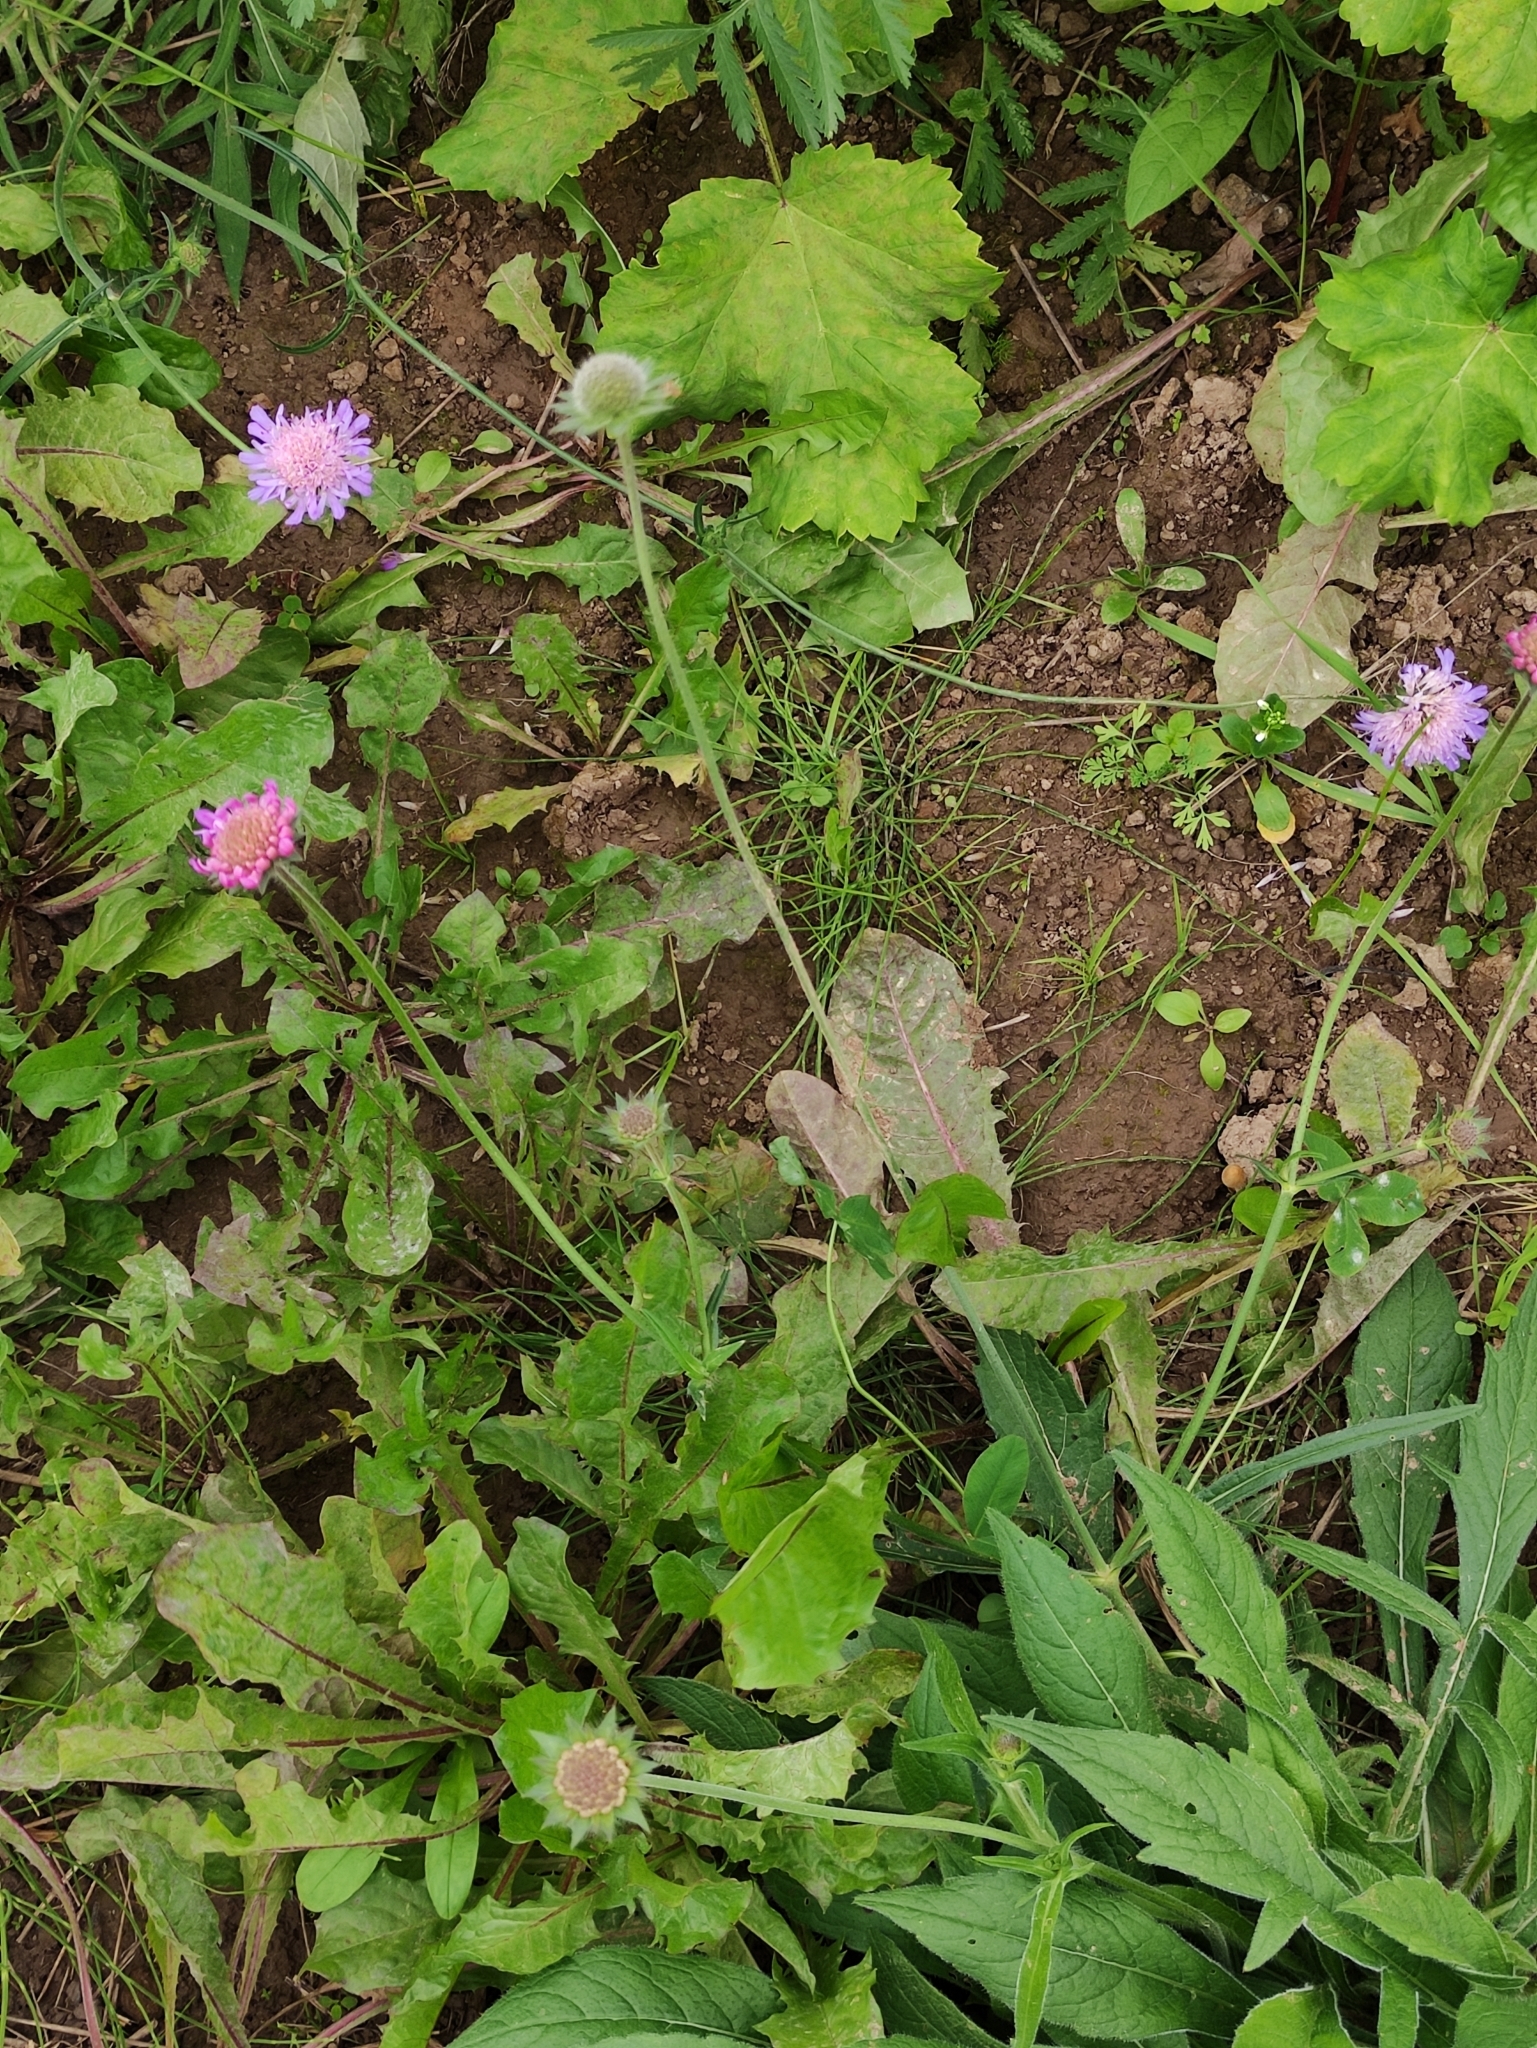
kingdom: Plantae
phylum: Tracheophyta
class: Magnoliopsida
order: Dipsacales
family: Caprifoliaceae
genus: Knautia
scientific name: Knautia arvensis
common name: Field scabiosa
